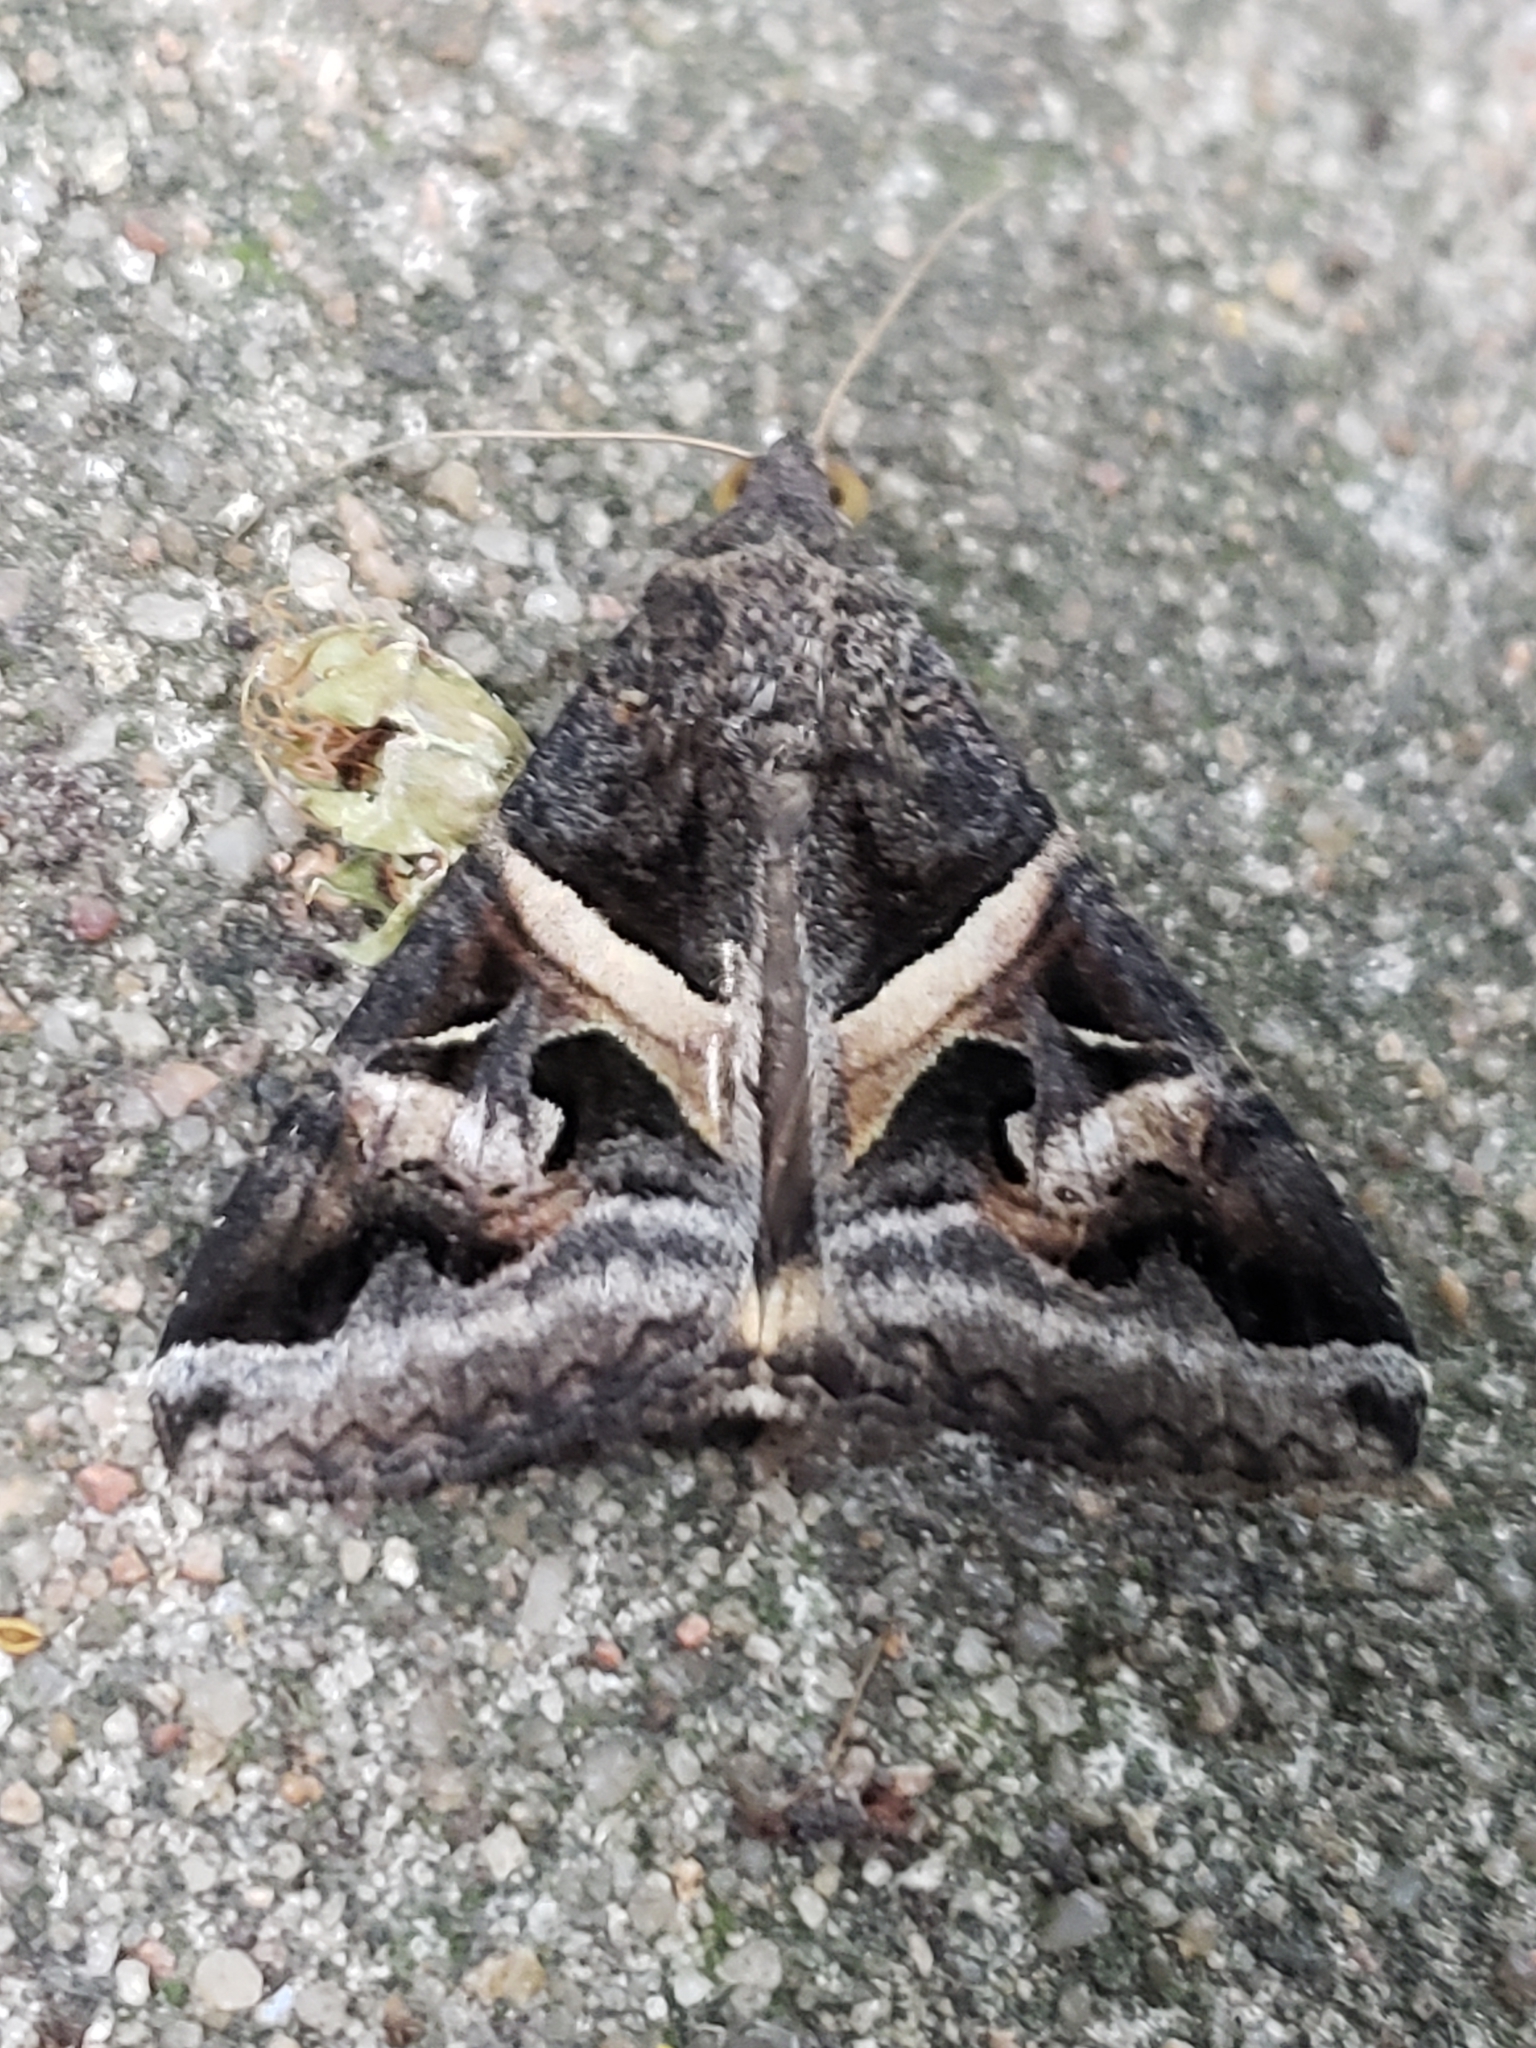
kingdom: Animalia
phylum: Arthropoda
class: Insecta
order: Lepidoptera
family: Erebidae
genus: Melipotis
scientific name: Melipotis indomita
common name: Moth
